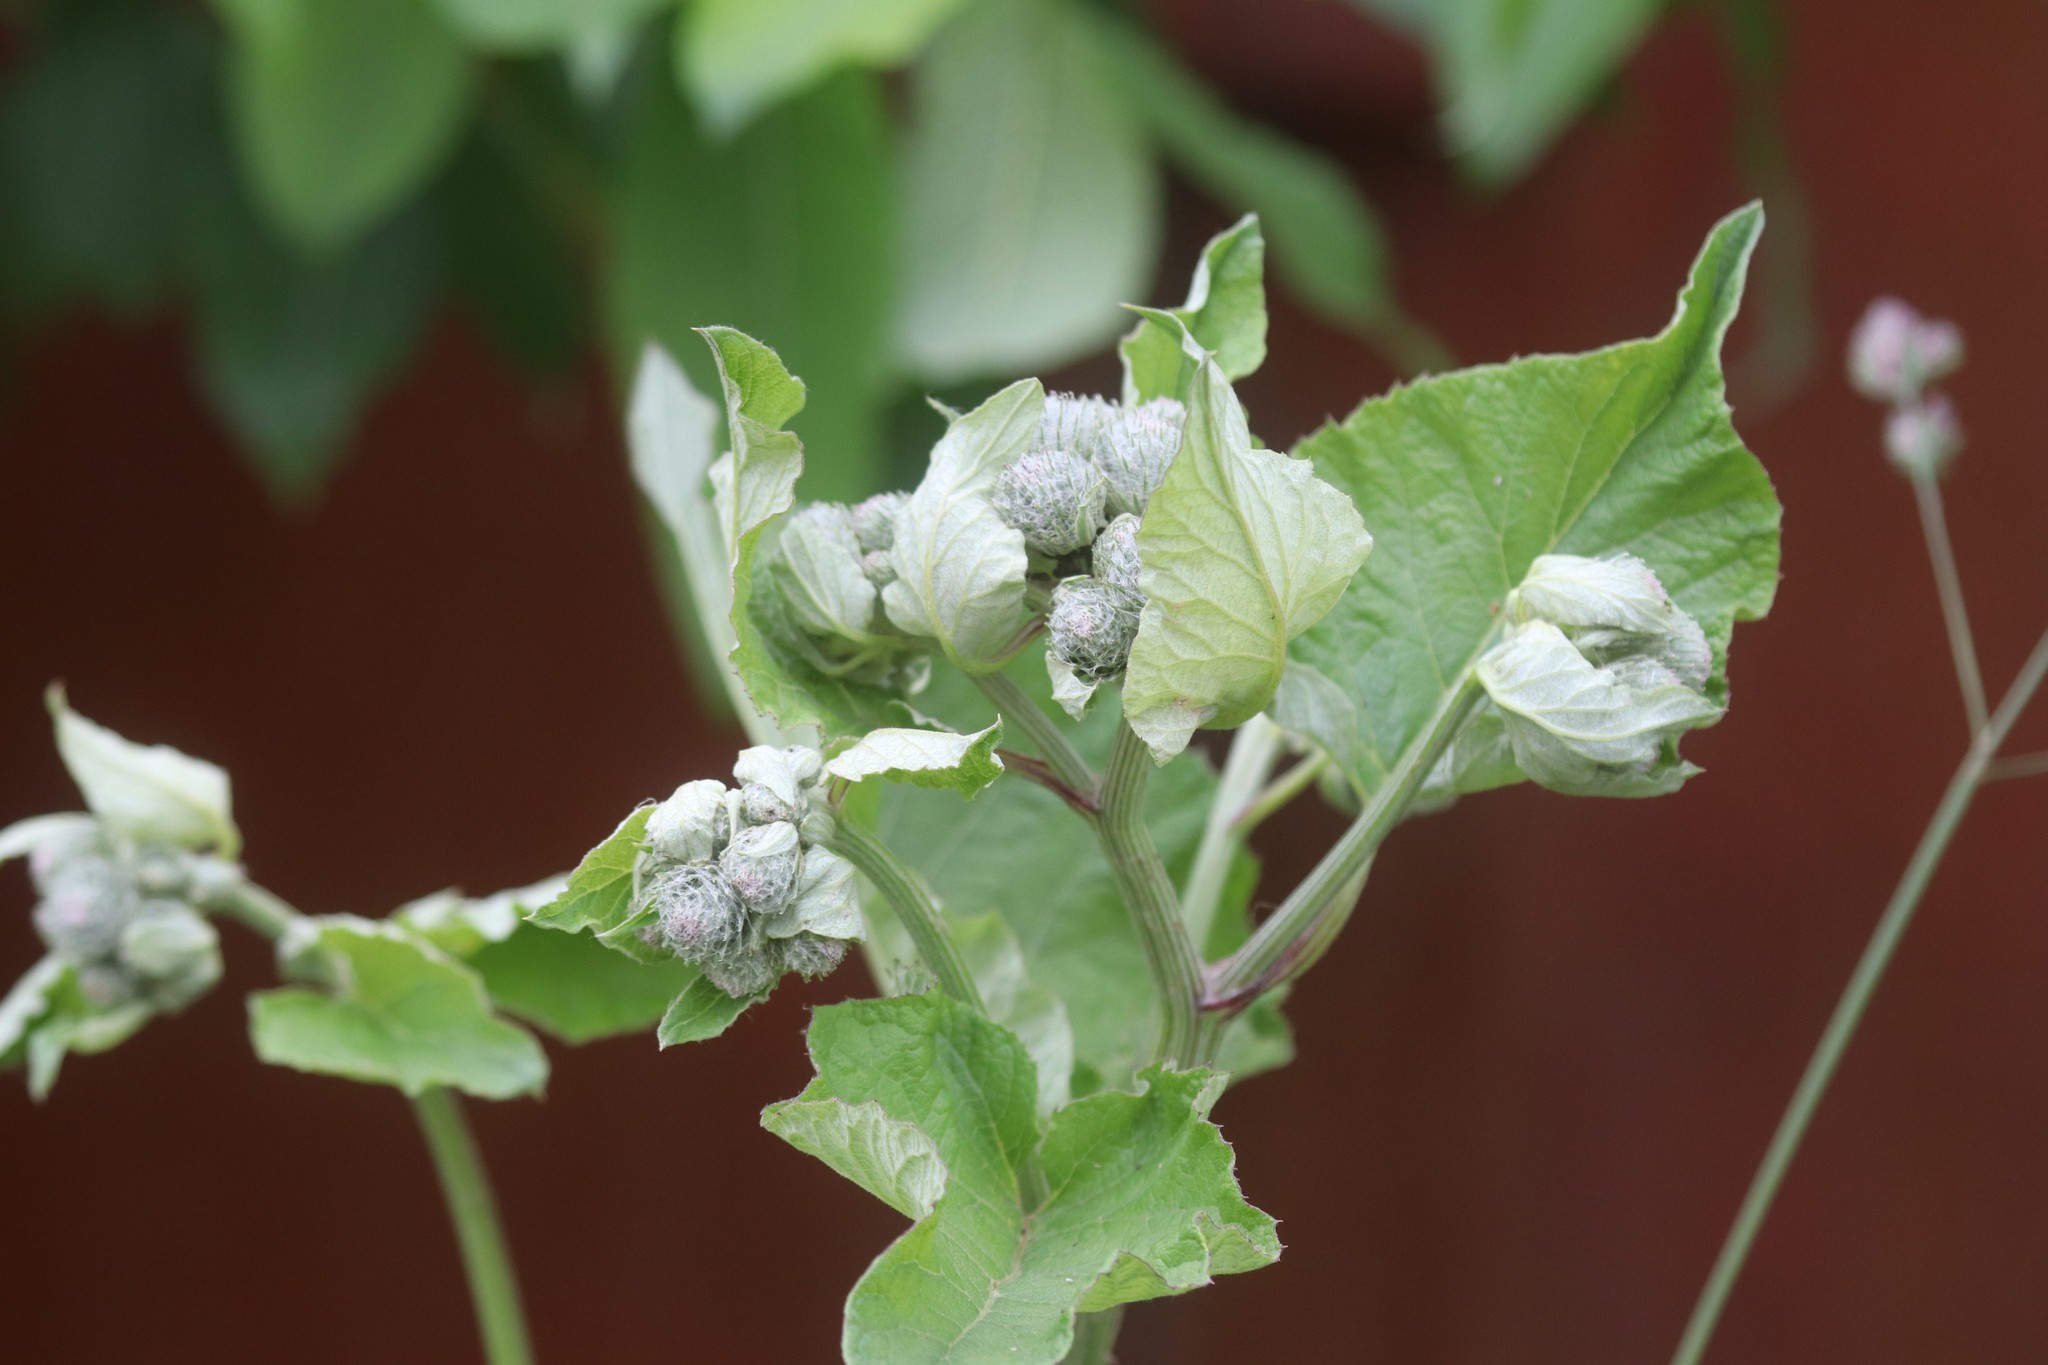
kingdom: Plantae
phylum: Tracheophyta
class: Magnoliopsida
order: Asterales
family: Asteraceae
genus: Arctium
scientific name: Arctium tomentosum
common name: Woolly burdock
